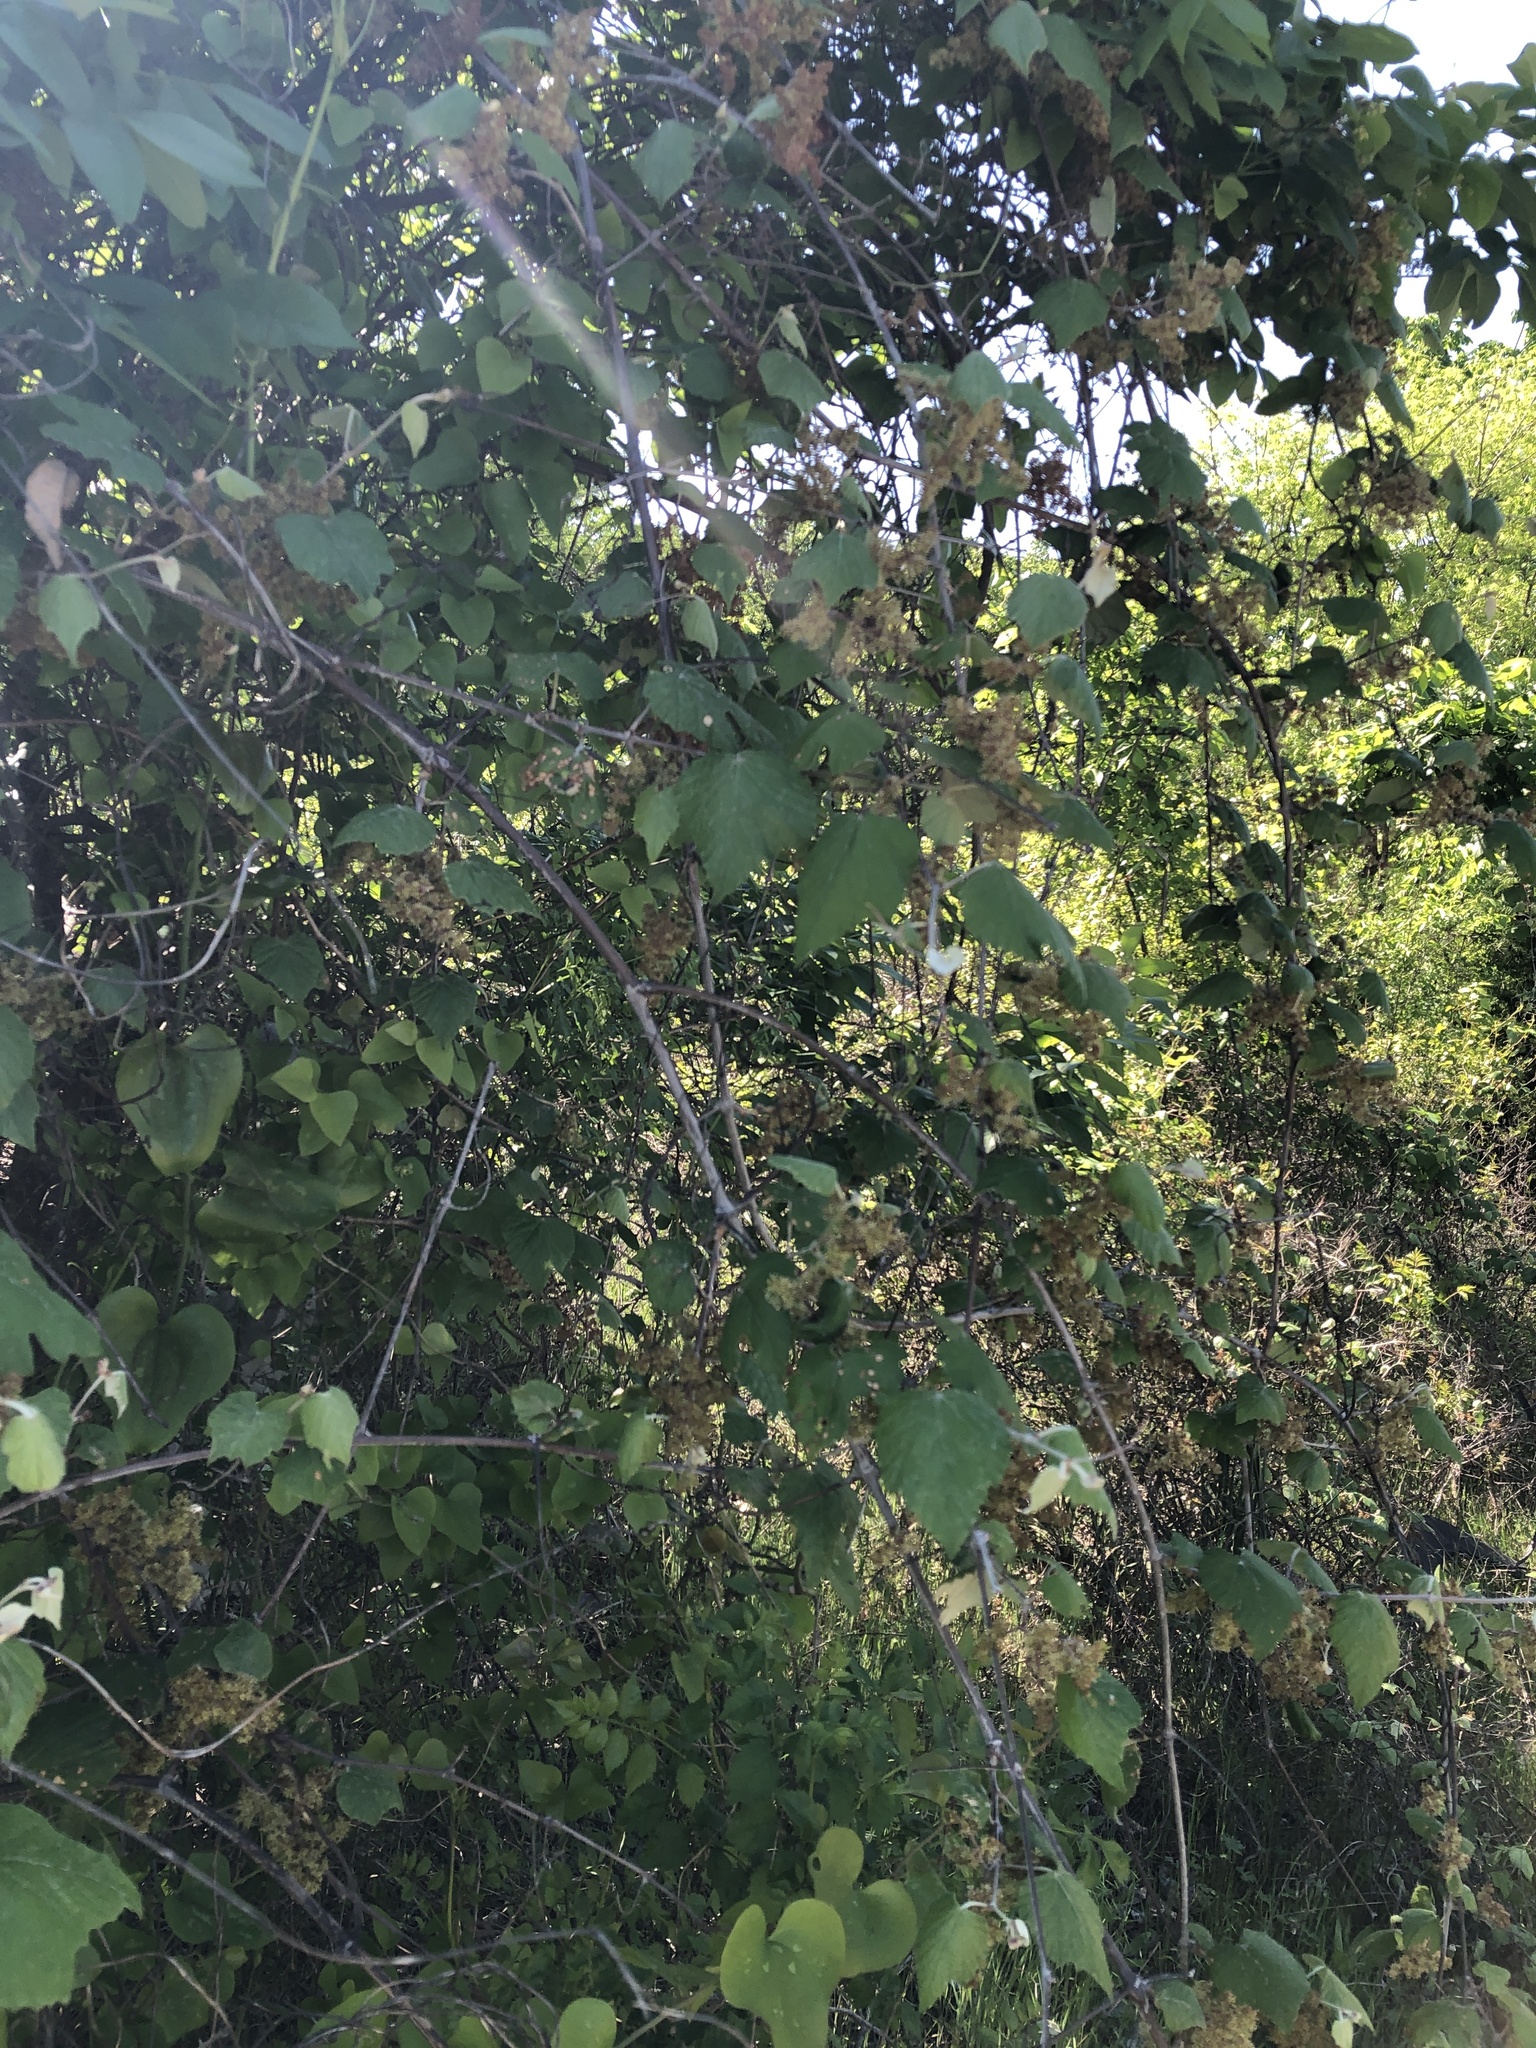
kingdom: Plantae
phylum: Tracheophyta
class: Magnoliopsida
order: Vitales
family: Vitaceae
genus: Vitis
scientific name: Vitis mustangensis
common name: Mustang grape
